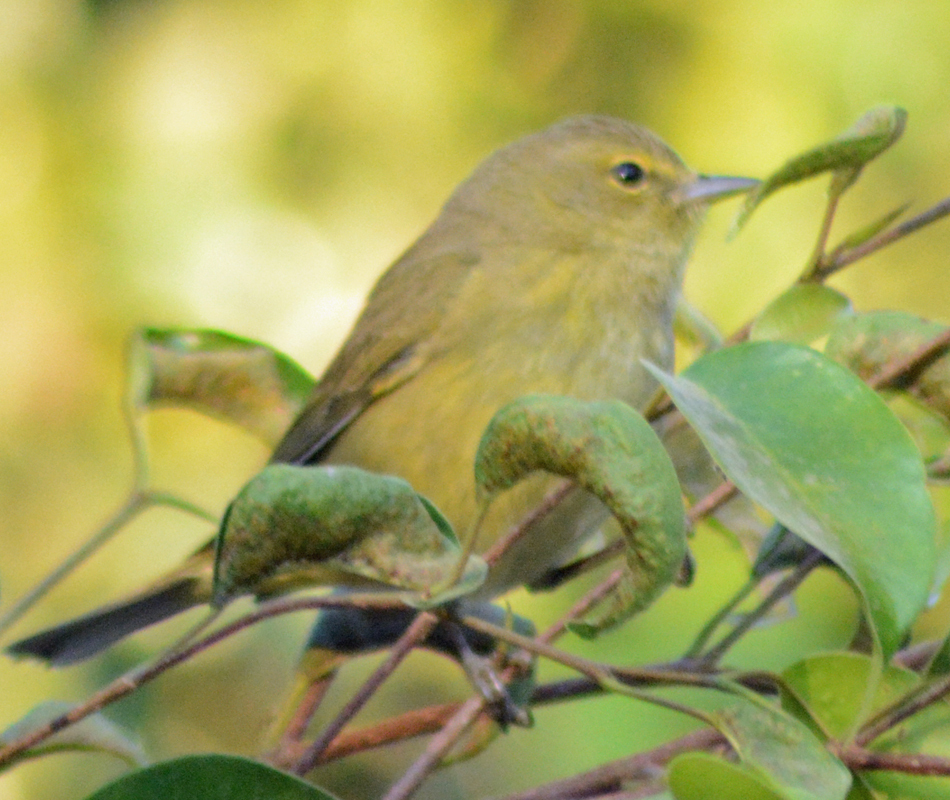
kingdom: Animalia
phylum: Chordata
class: Aves
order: Passeriformes
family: Parulidae
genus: Leiothlypis
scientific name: Leiothlypis celata
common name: Orange-crowned warbler
